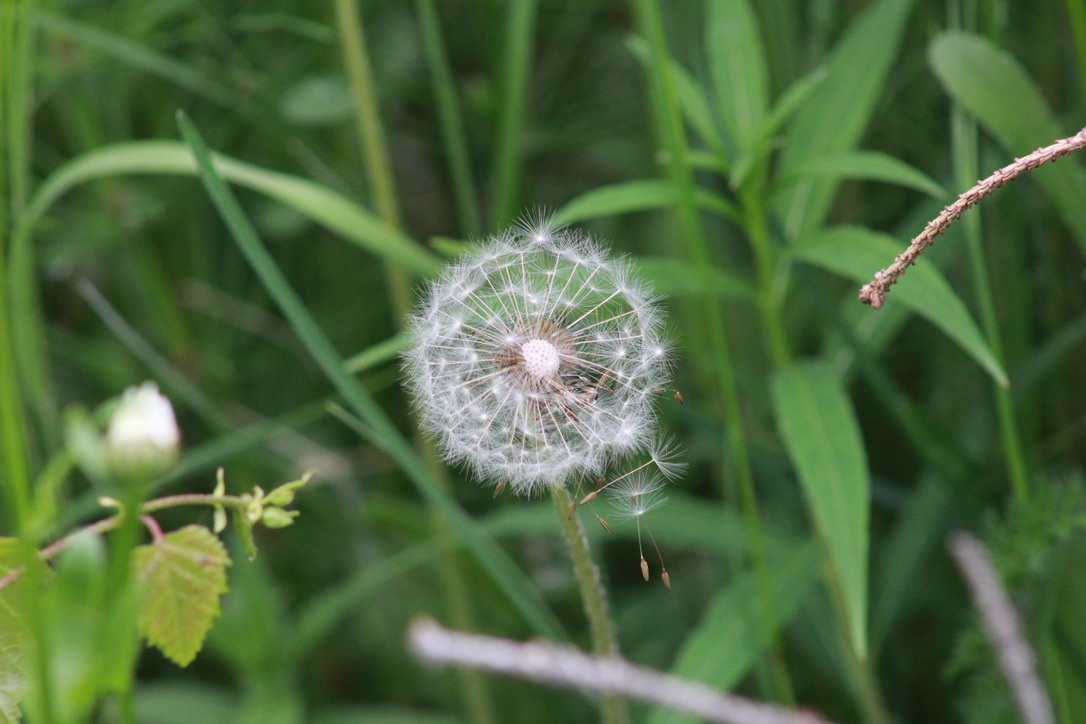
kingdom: Plantae
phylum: Tracheophyta
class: Magnoliopsida
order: Asterales
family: Asteraceae
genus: Taraxacum
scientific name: Taraxacum officinale
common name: Common dandelion
